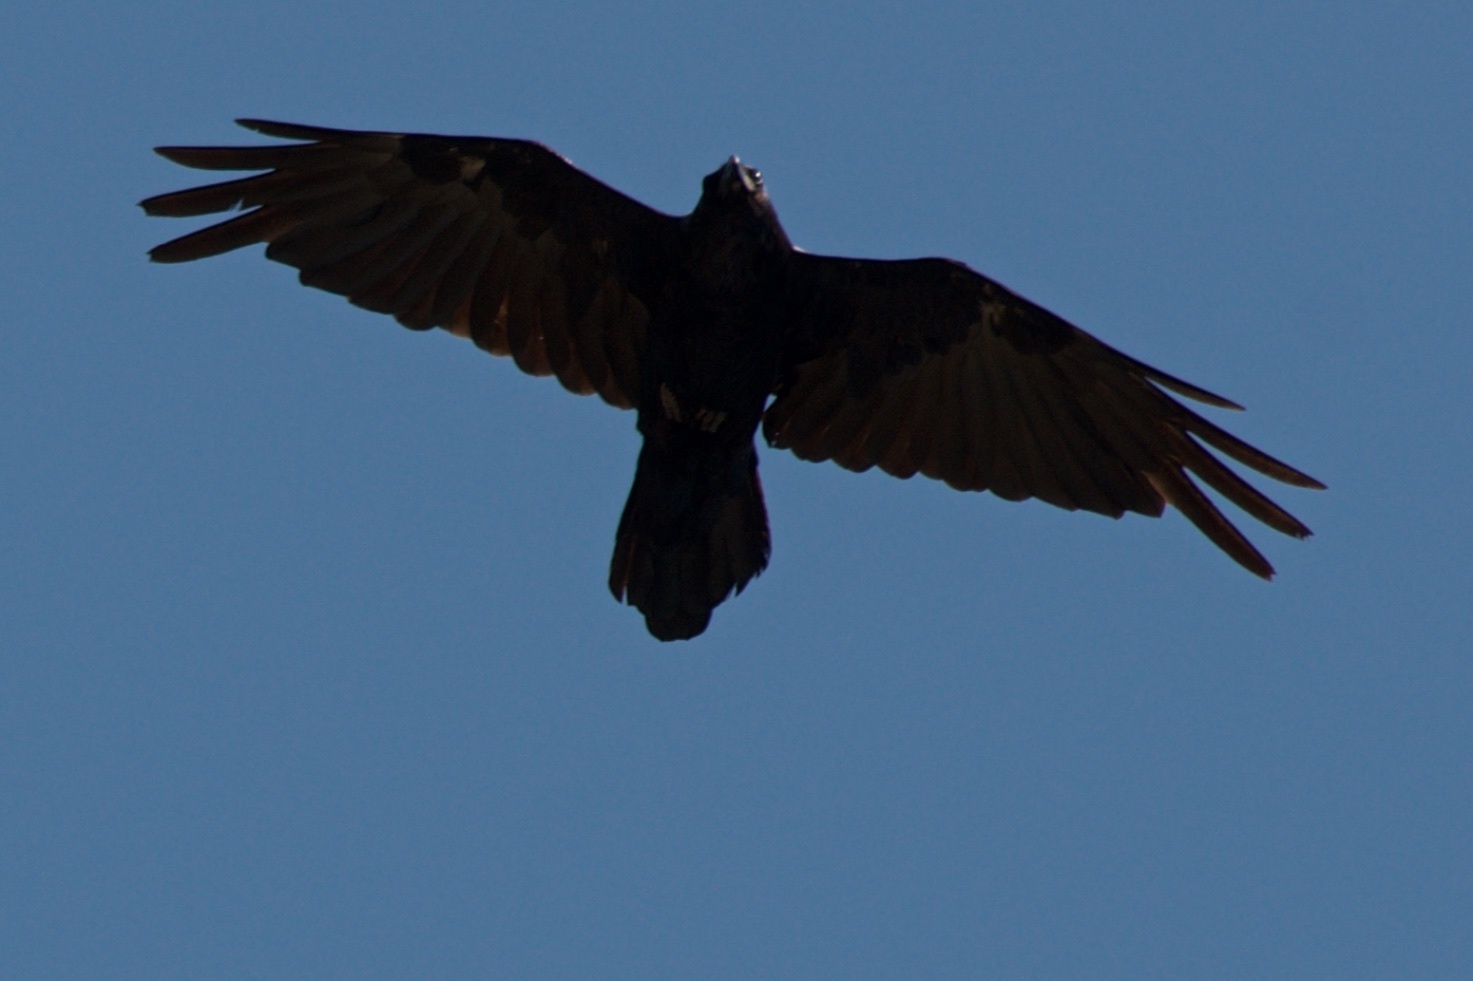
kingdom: Animalia
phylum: Chordata
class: Aves
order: Passeriformes
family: Corvidae
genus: Corvus
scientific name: Corvus corax
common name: Common raven
